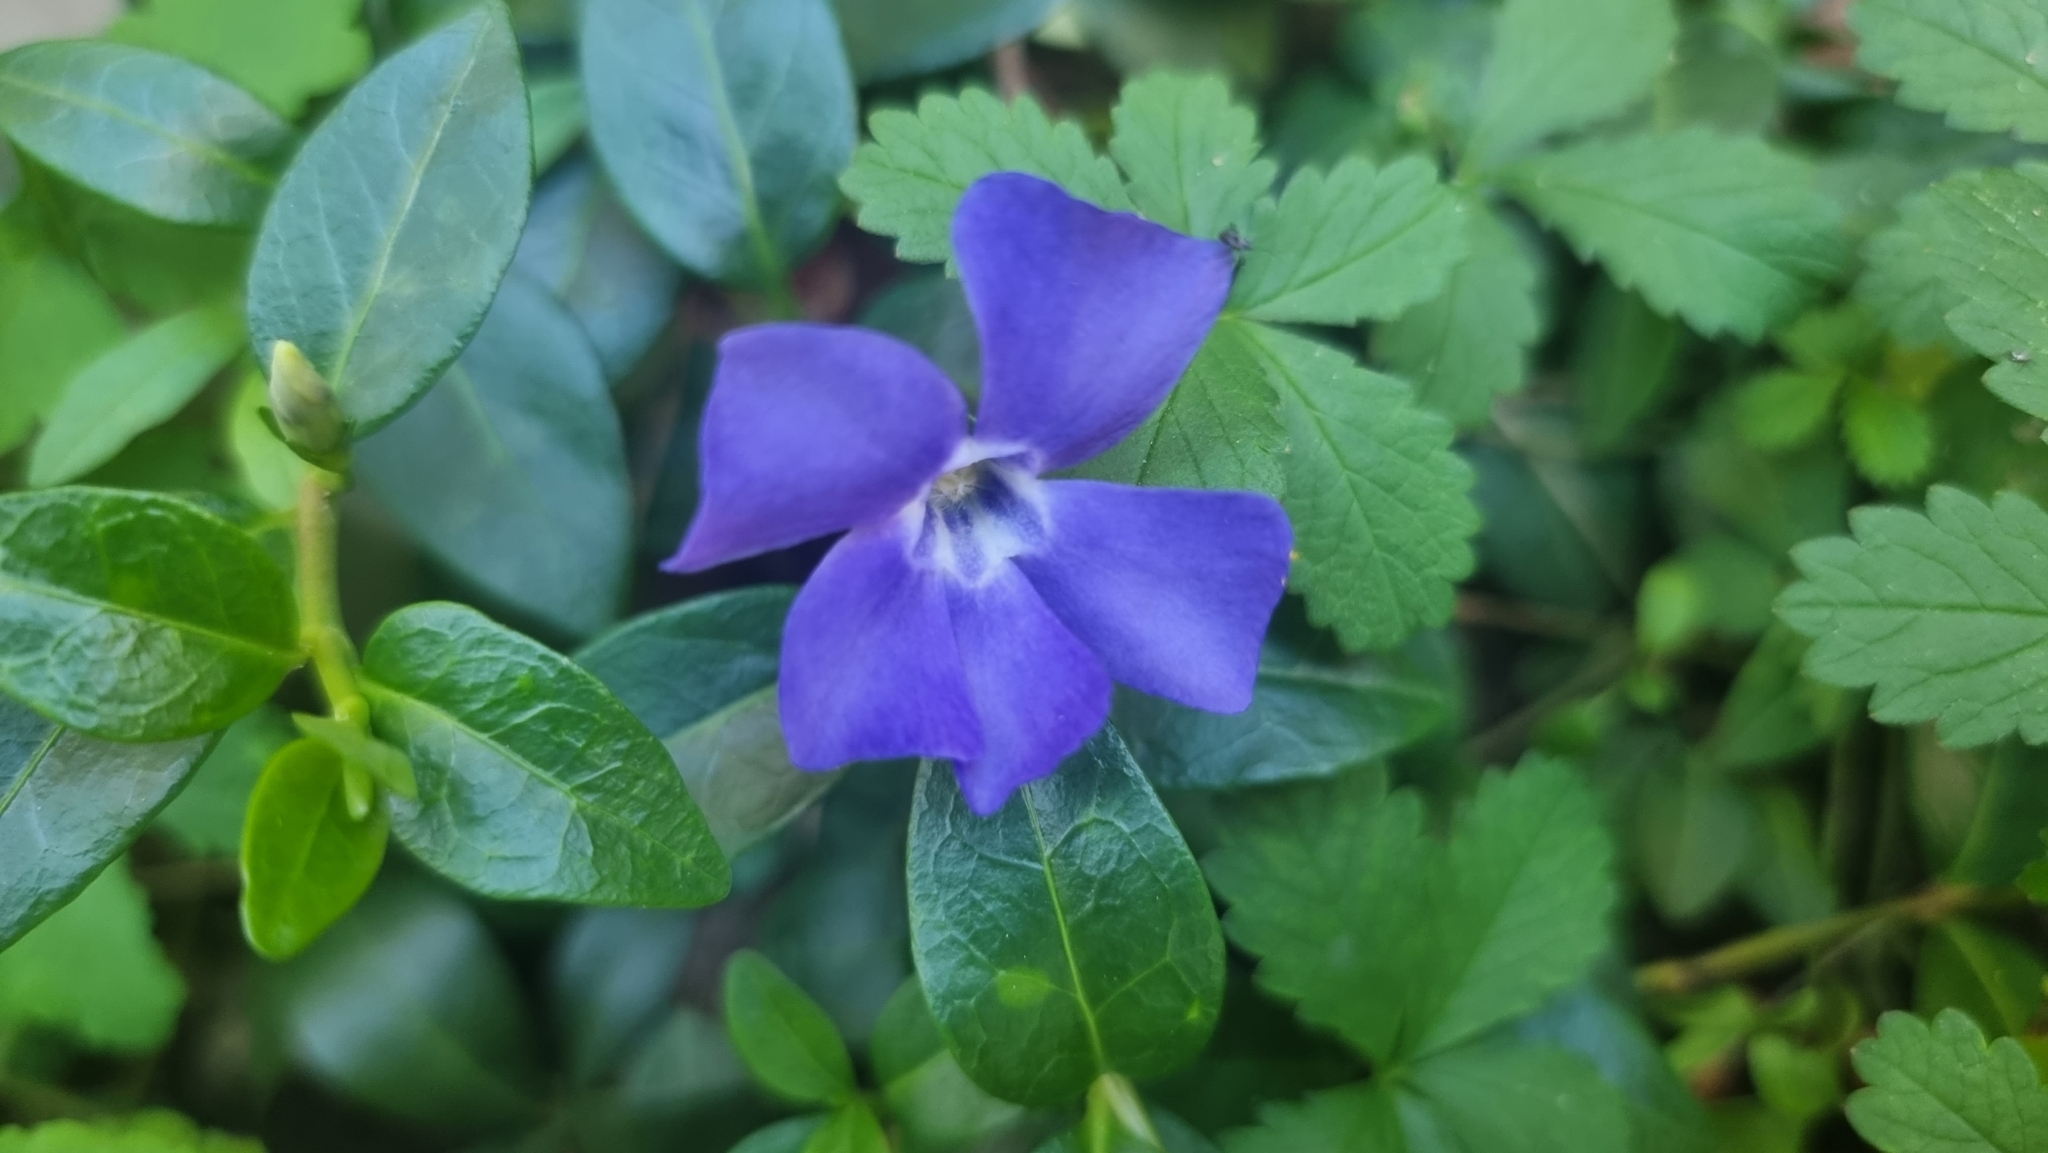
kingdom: Plantae
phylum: Tracheophyta
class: Magnoliopsida
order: Gentianales
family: Apocynaceae
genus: Vinca
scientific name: Vinca minor
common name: Lesser periwinkle
